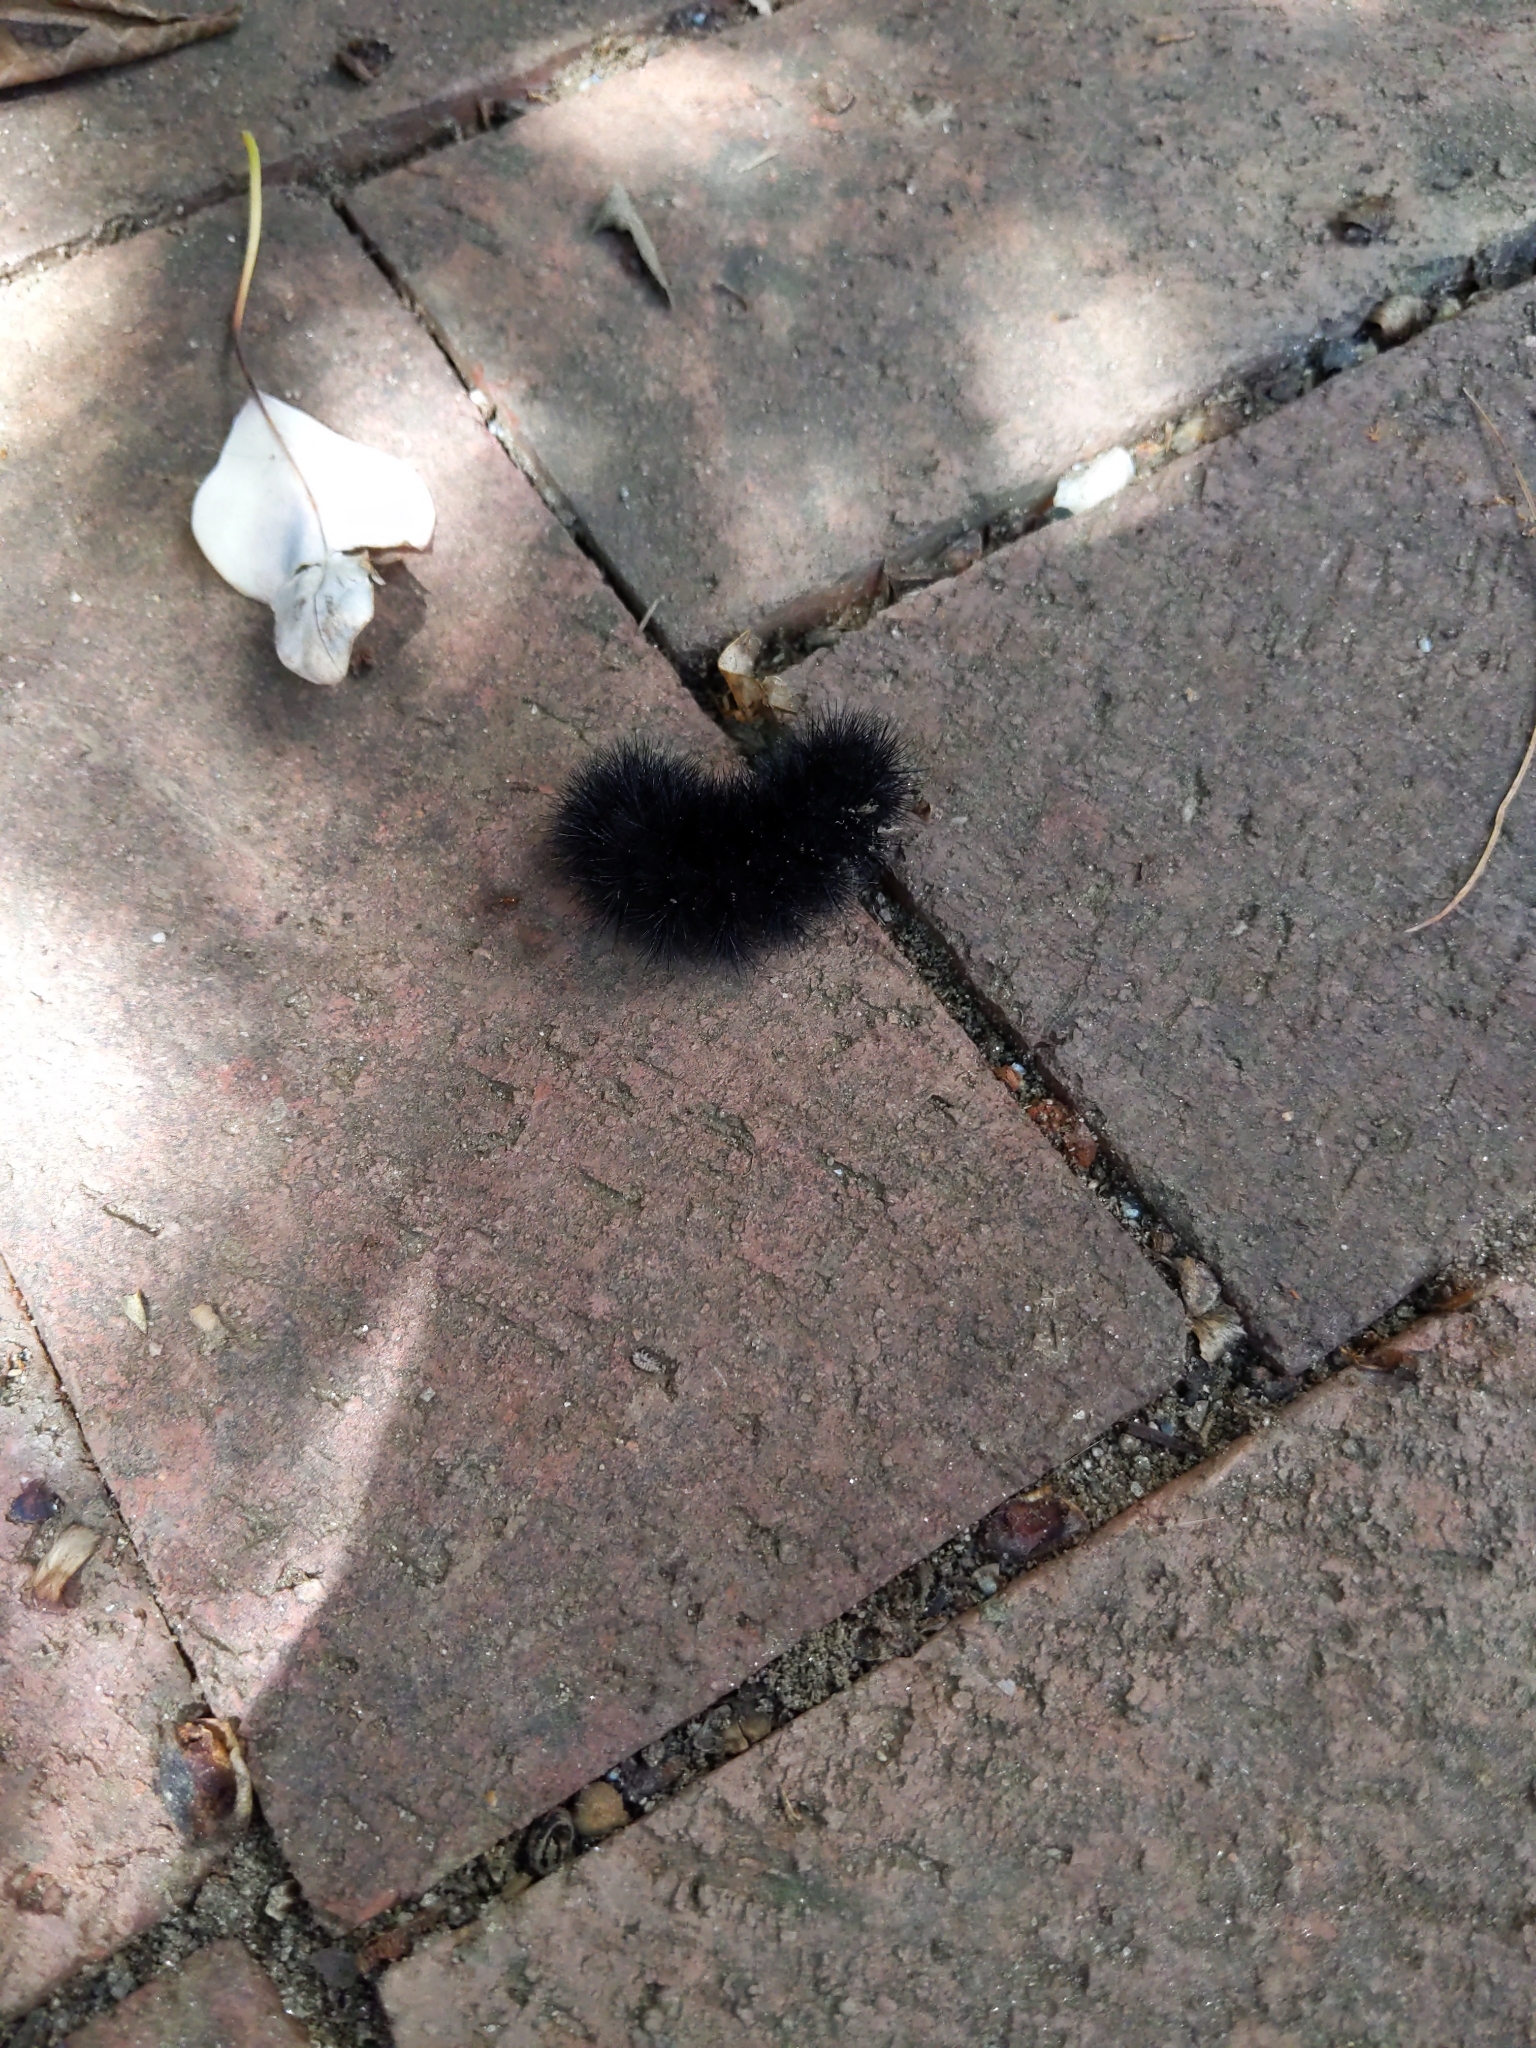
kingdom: Animalia
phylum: Arthropoda
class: Insecta
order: Lepidoptera
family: Erebidae
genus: Hypercompe
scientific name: Hypercompe scribonia
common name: Giant leopard moth
